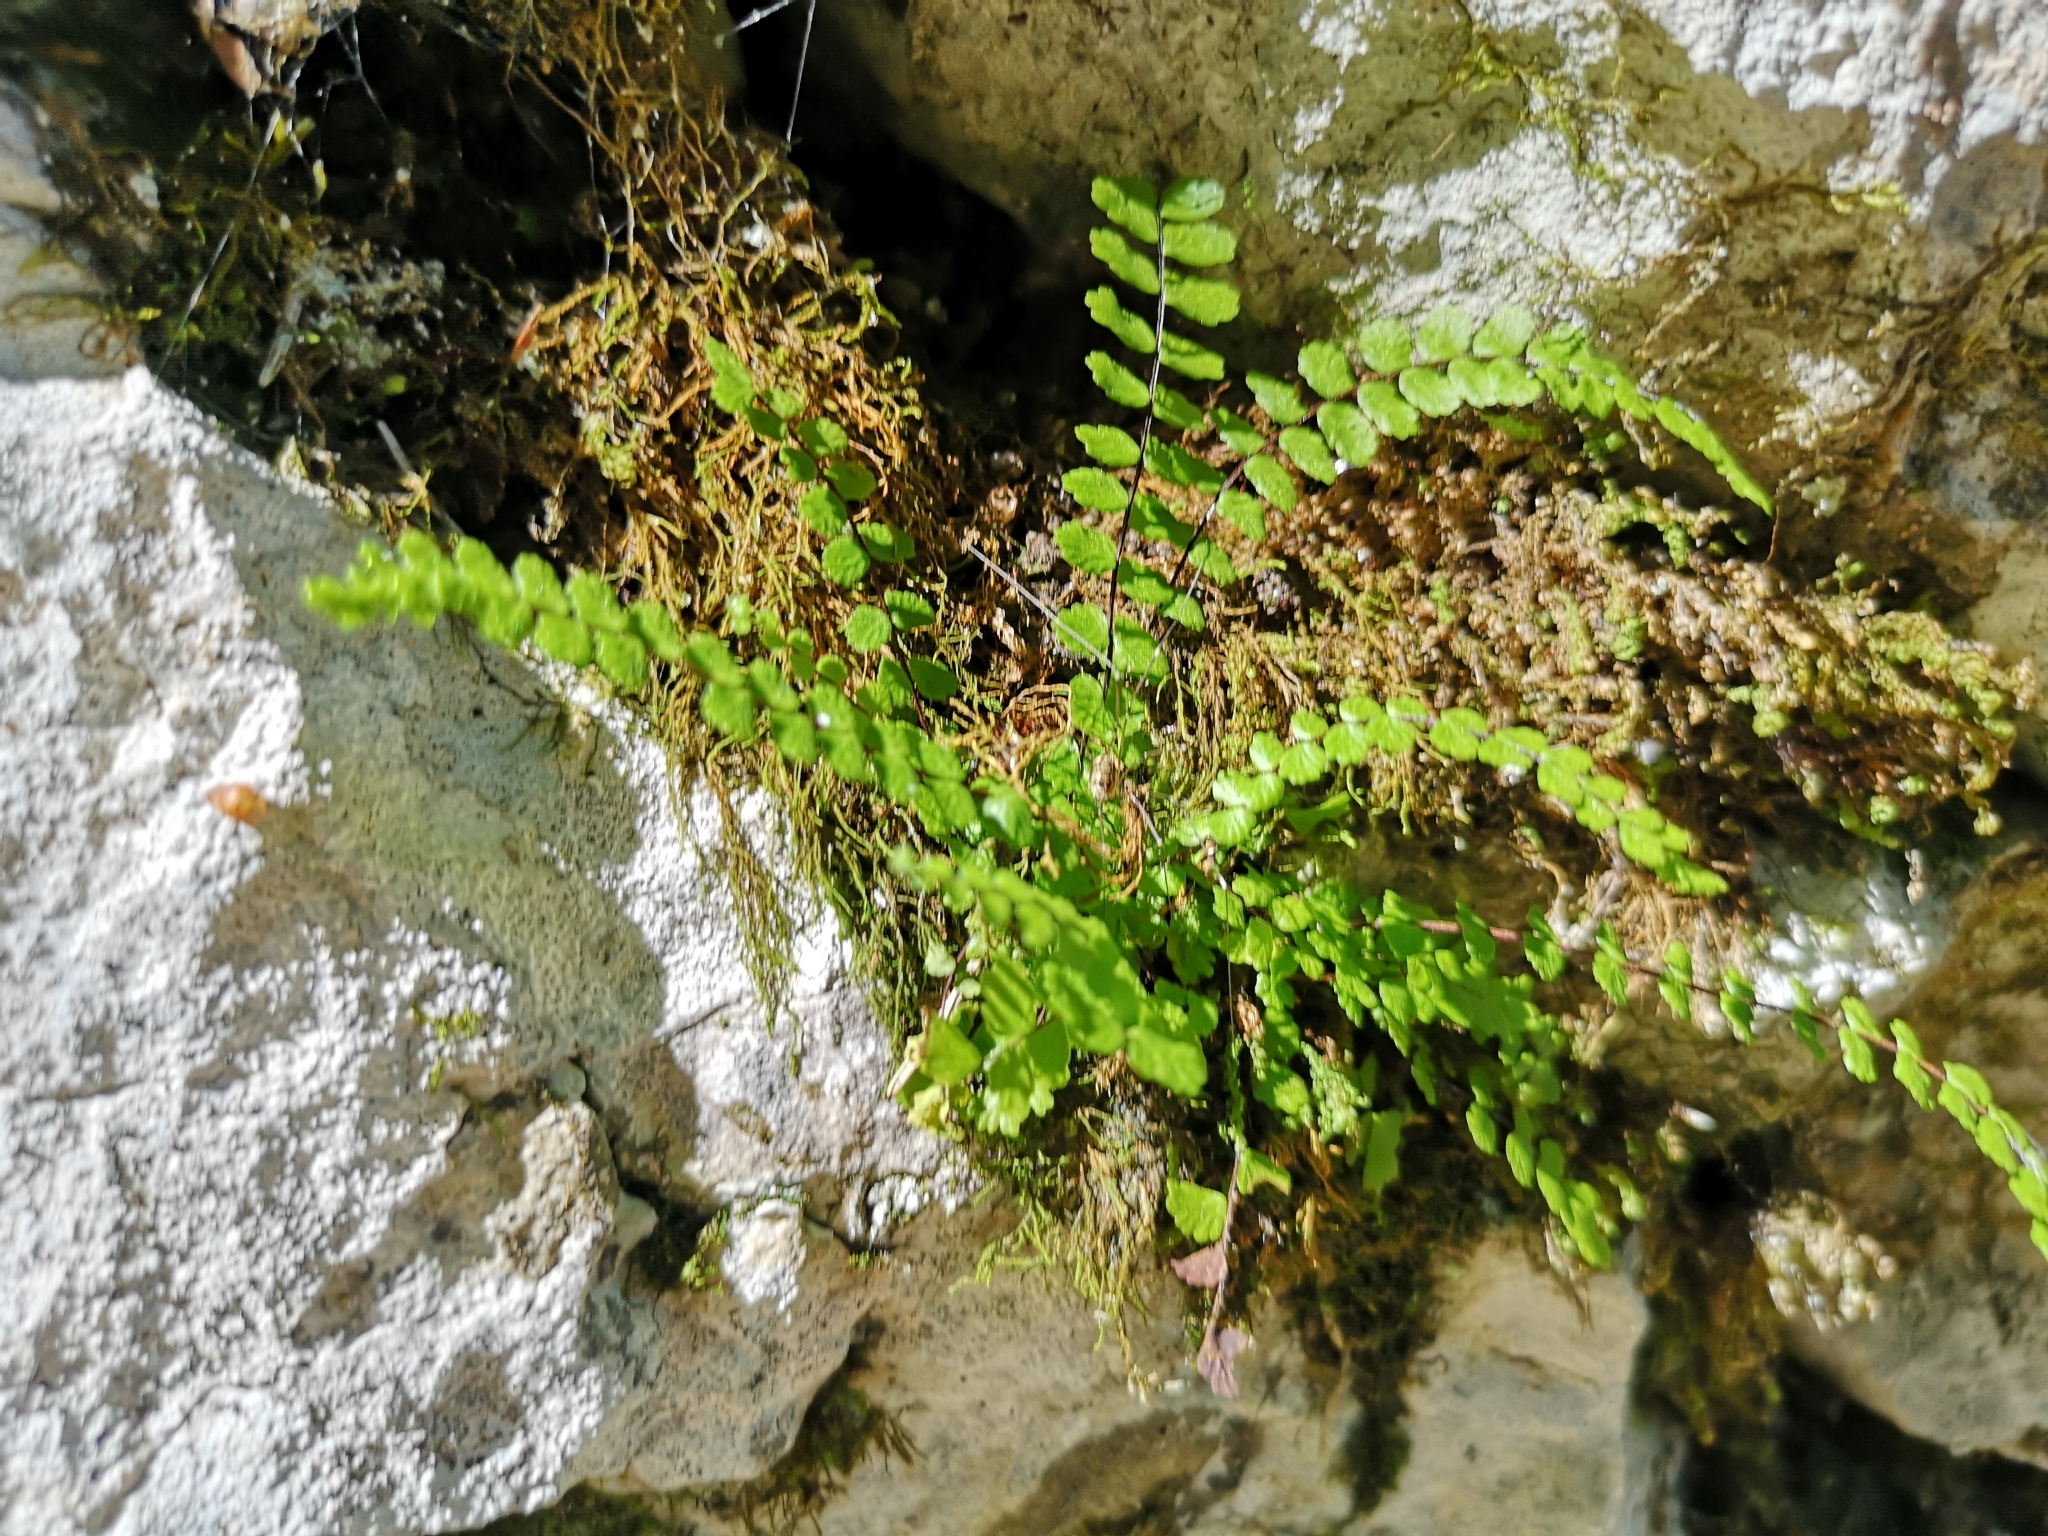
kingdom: Plantae
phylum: Tracheophyta
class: Polypodiopsida
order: Polypodiales
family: Aspleniaceae
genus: Asplenium
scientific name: Asplenium trichomanes
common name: Maidenhair spleenwort
